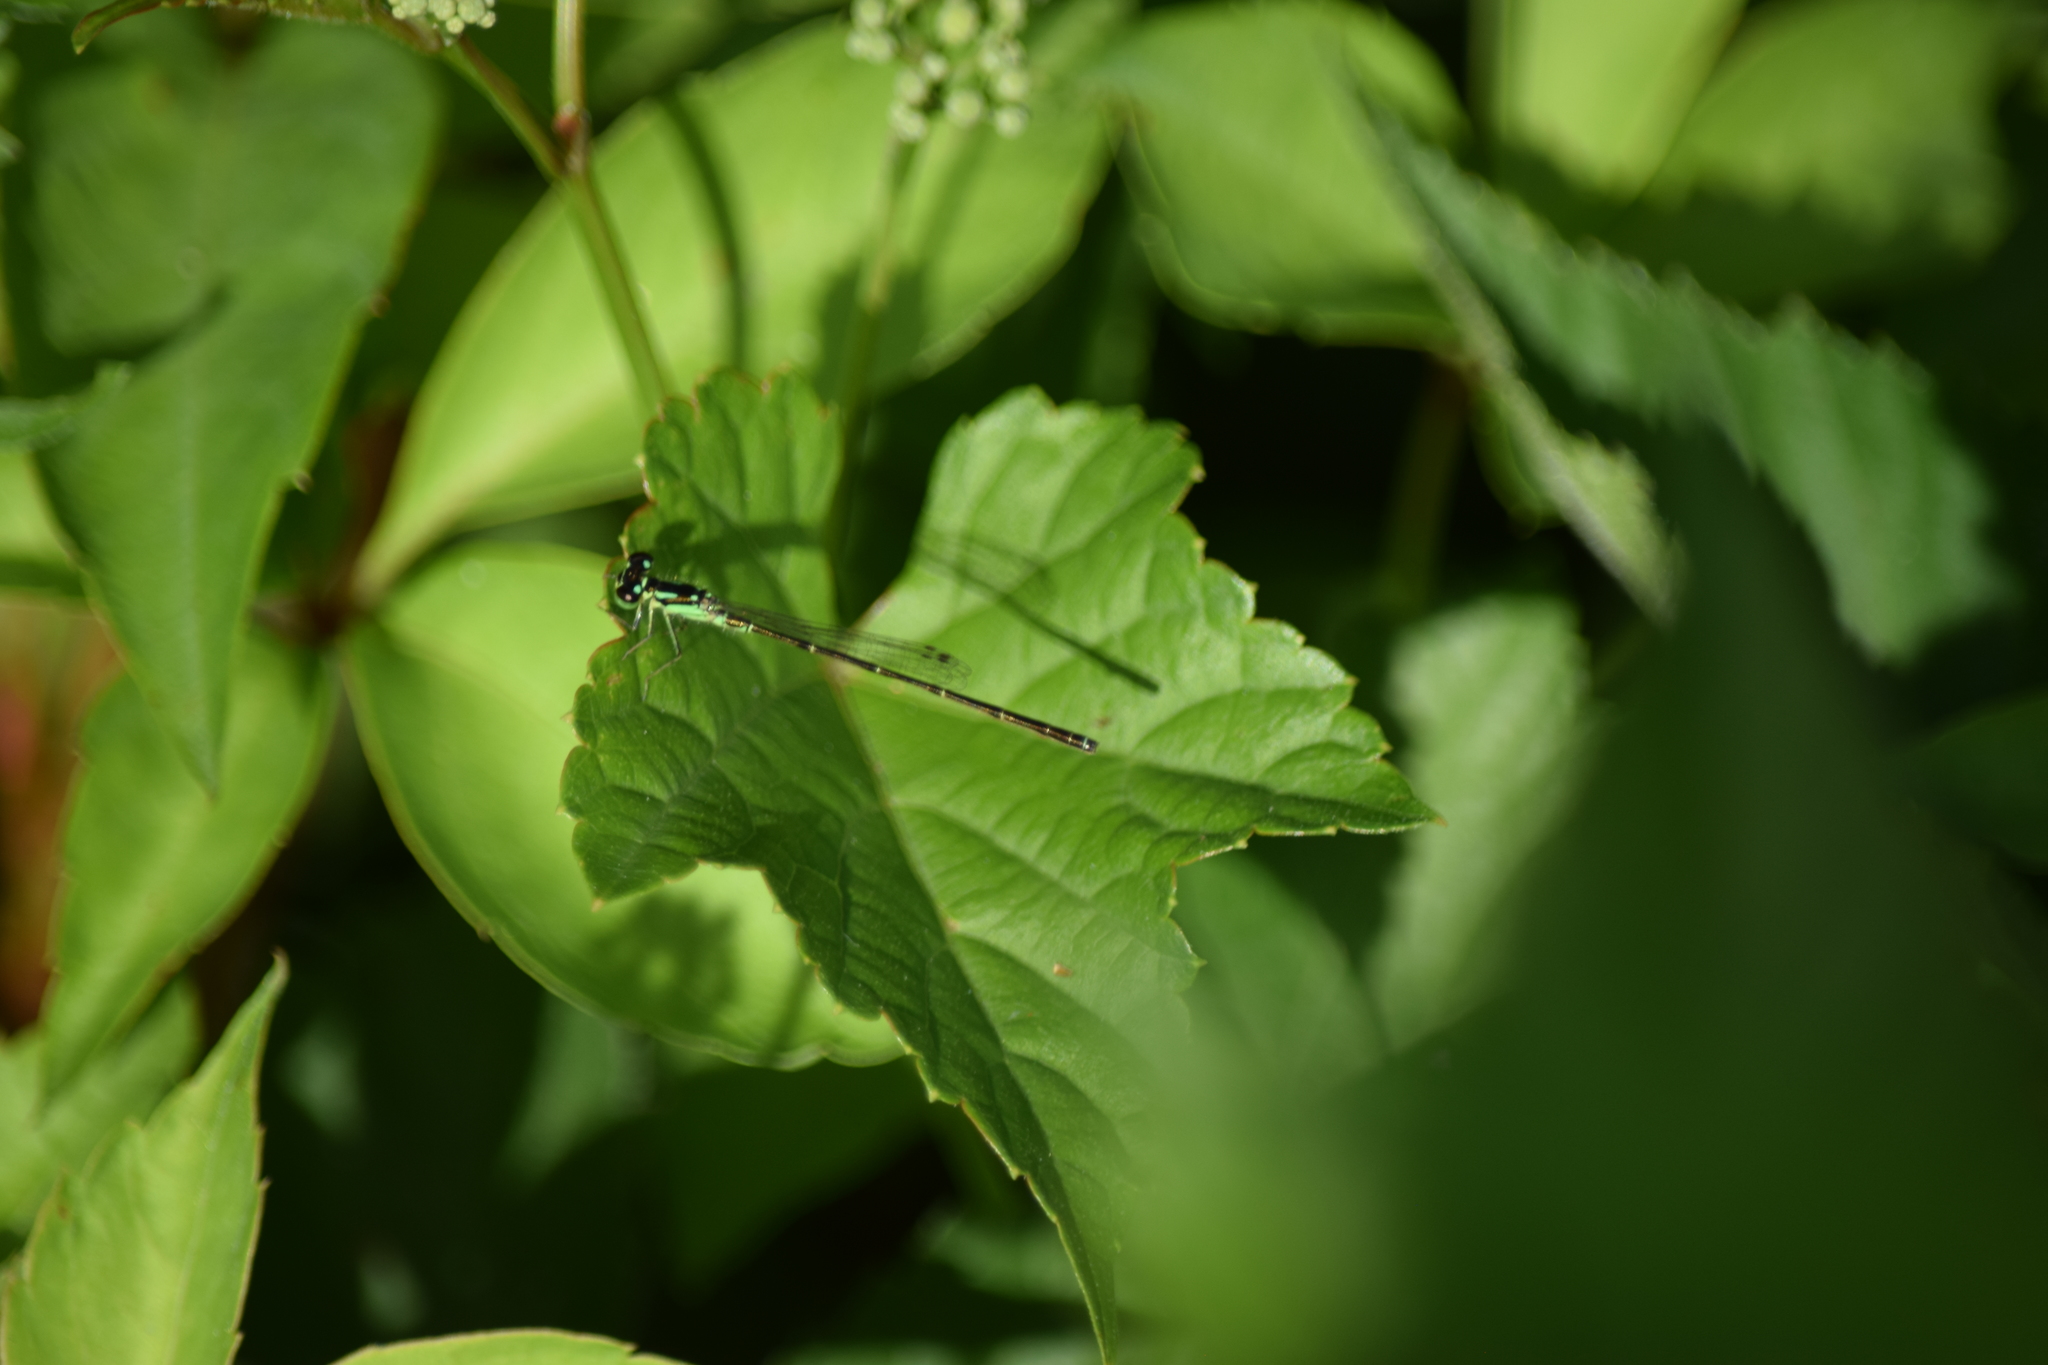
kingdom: Animalia
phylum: Arthropoda
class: Insecta
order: Odonata
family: Coenagrionidae
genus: Ischnura
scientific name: Ischnura posita
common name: Fragile forktail
